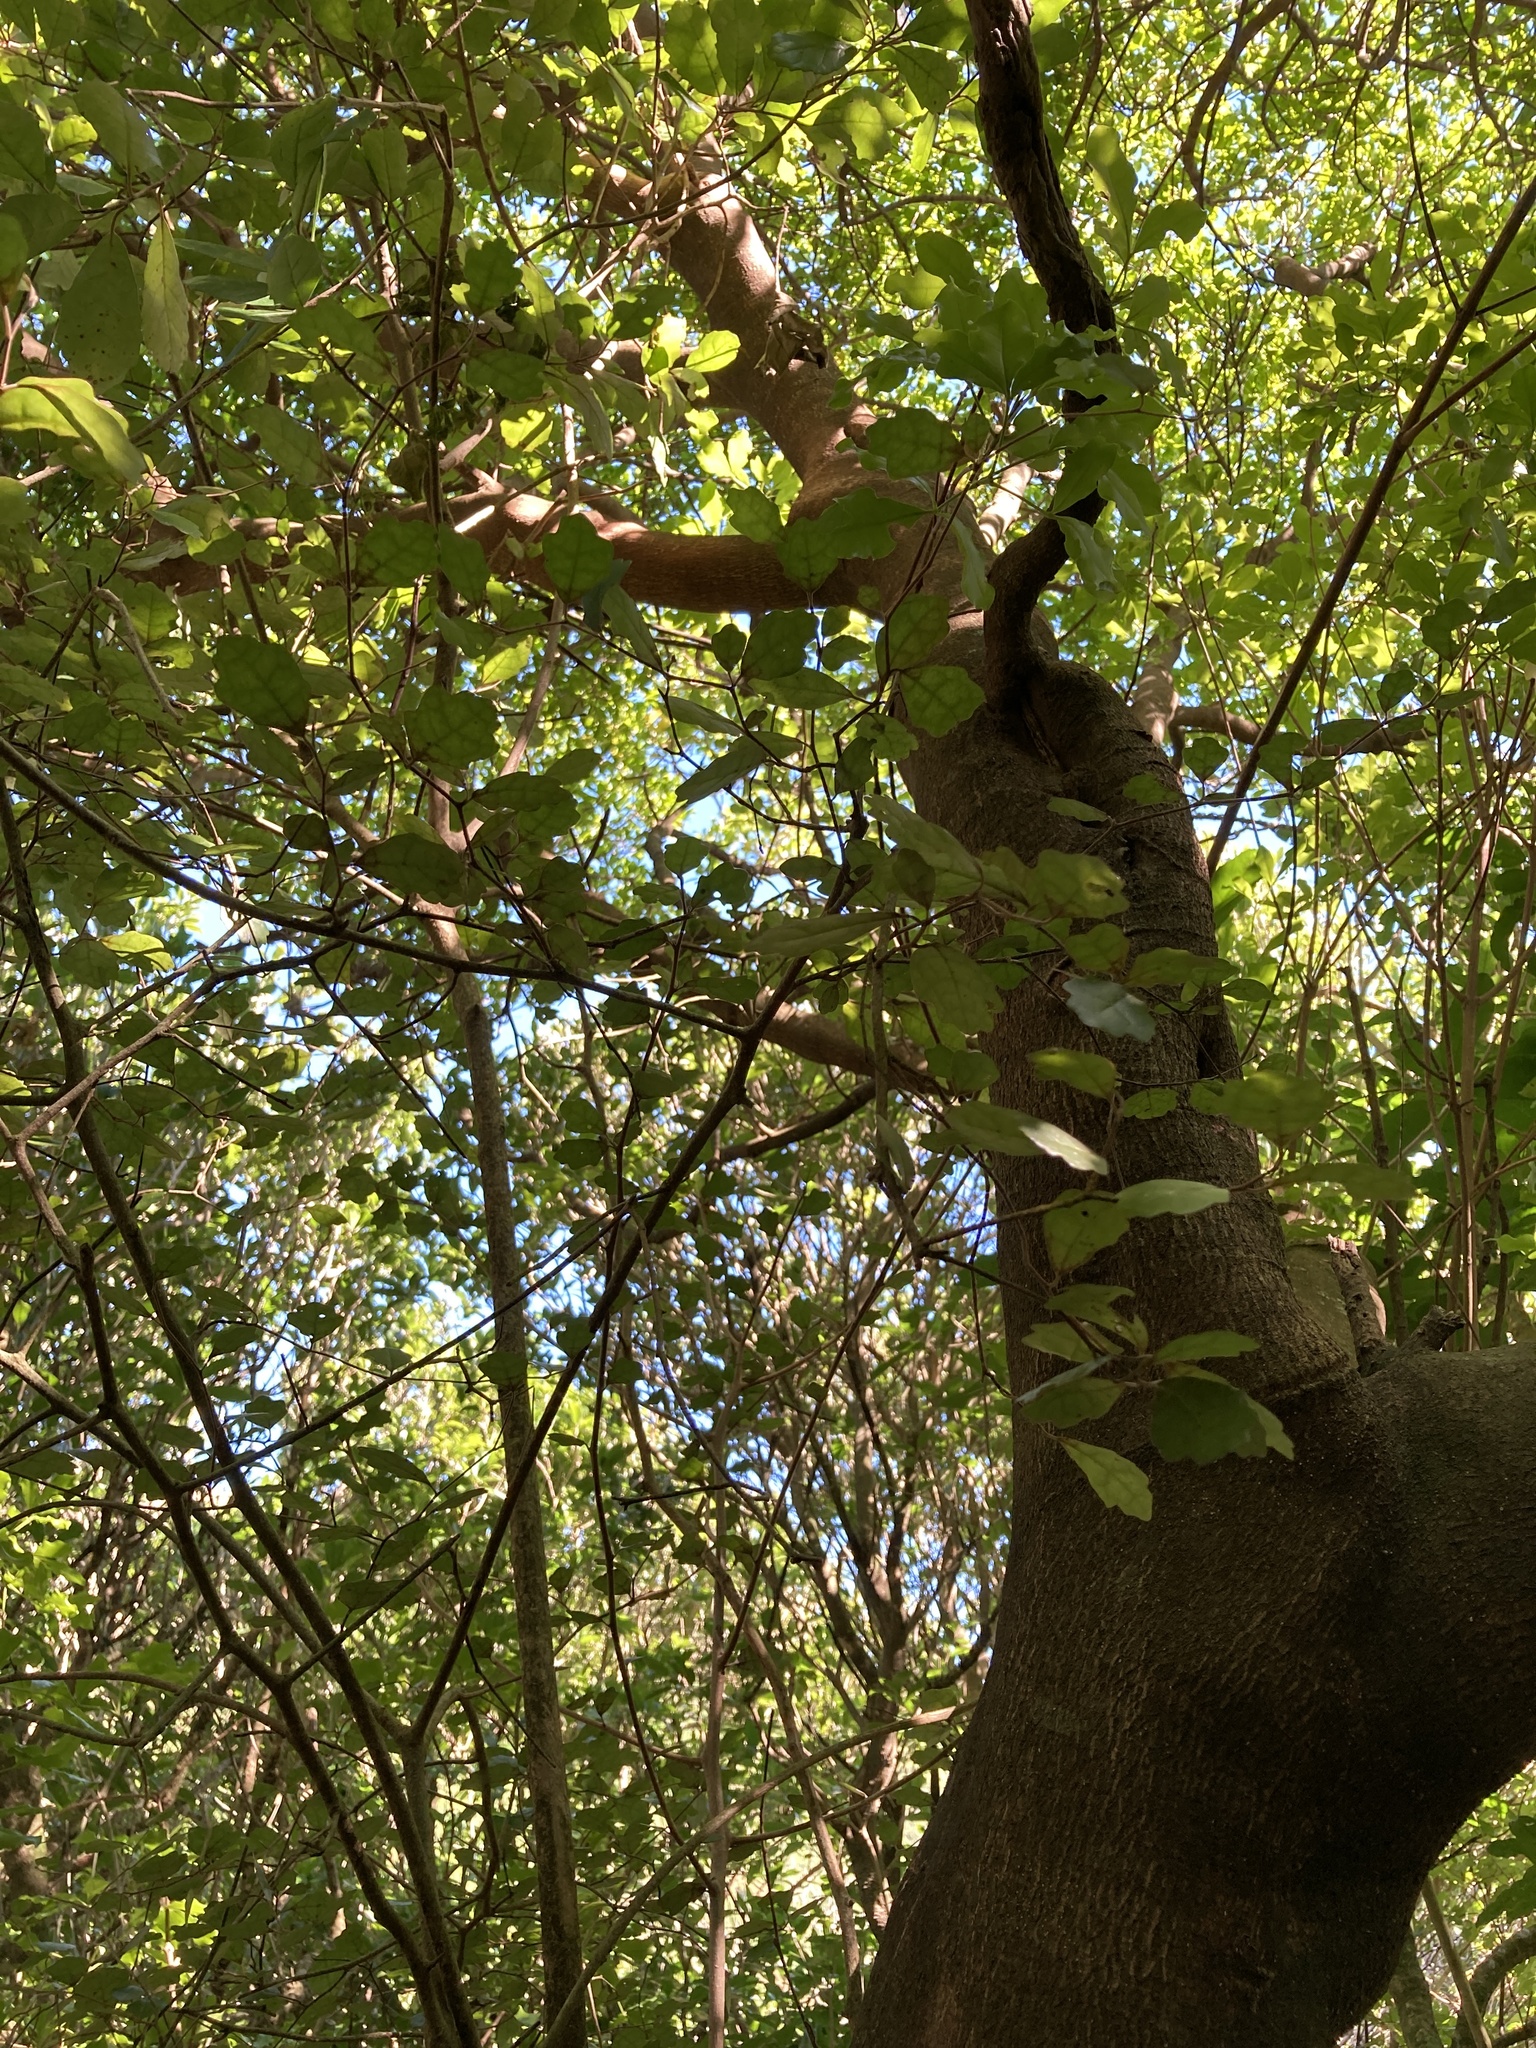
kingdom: Plantae
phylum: Tracheophyta
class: Magnoliopsida
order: Apiales
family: Pennantiaceae
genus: Pennantia
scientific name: Pennantia corymbosa
